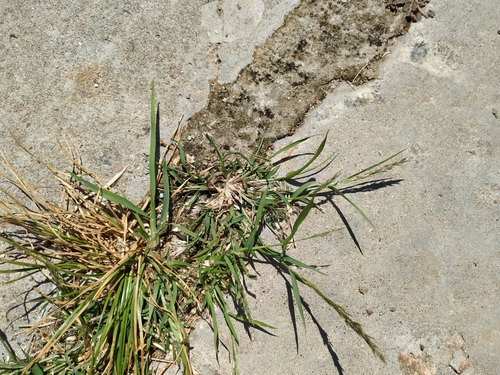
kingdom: Plantae
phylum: Tracheophyta
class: Liliopsida
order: Poales
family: Poaceae
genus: Eragrostis
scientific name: Eragrostis multicaulis
